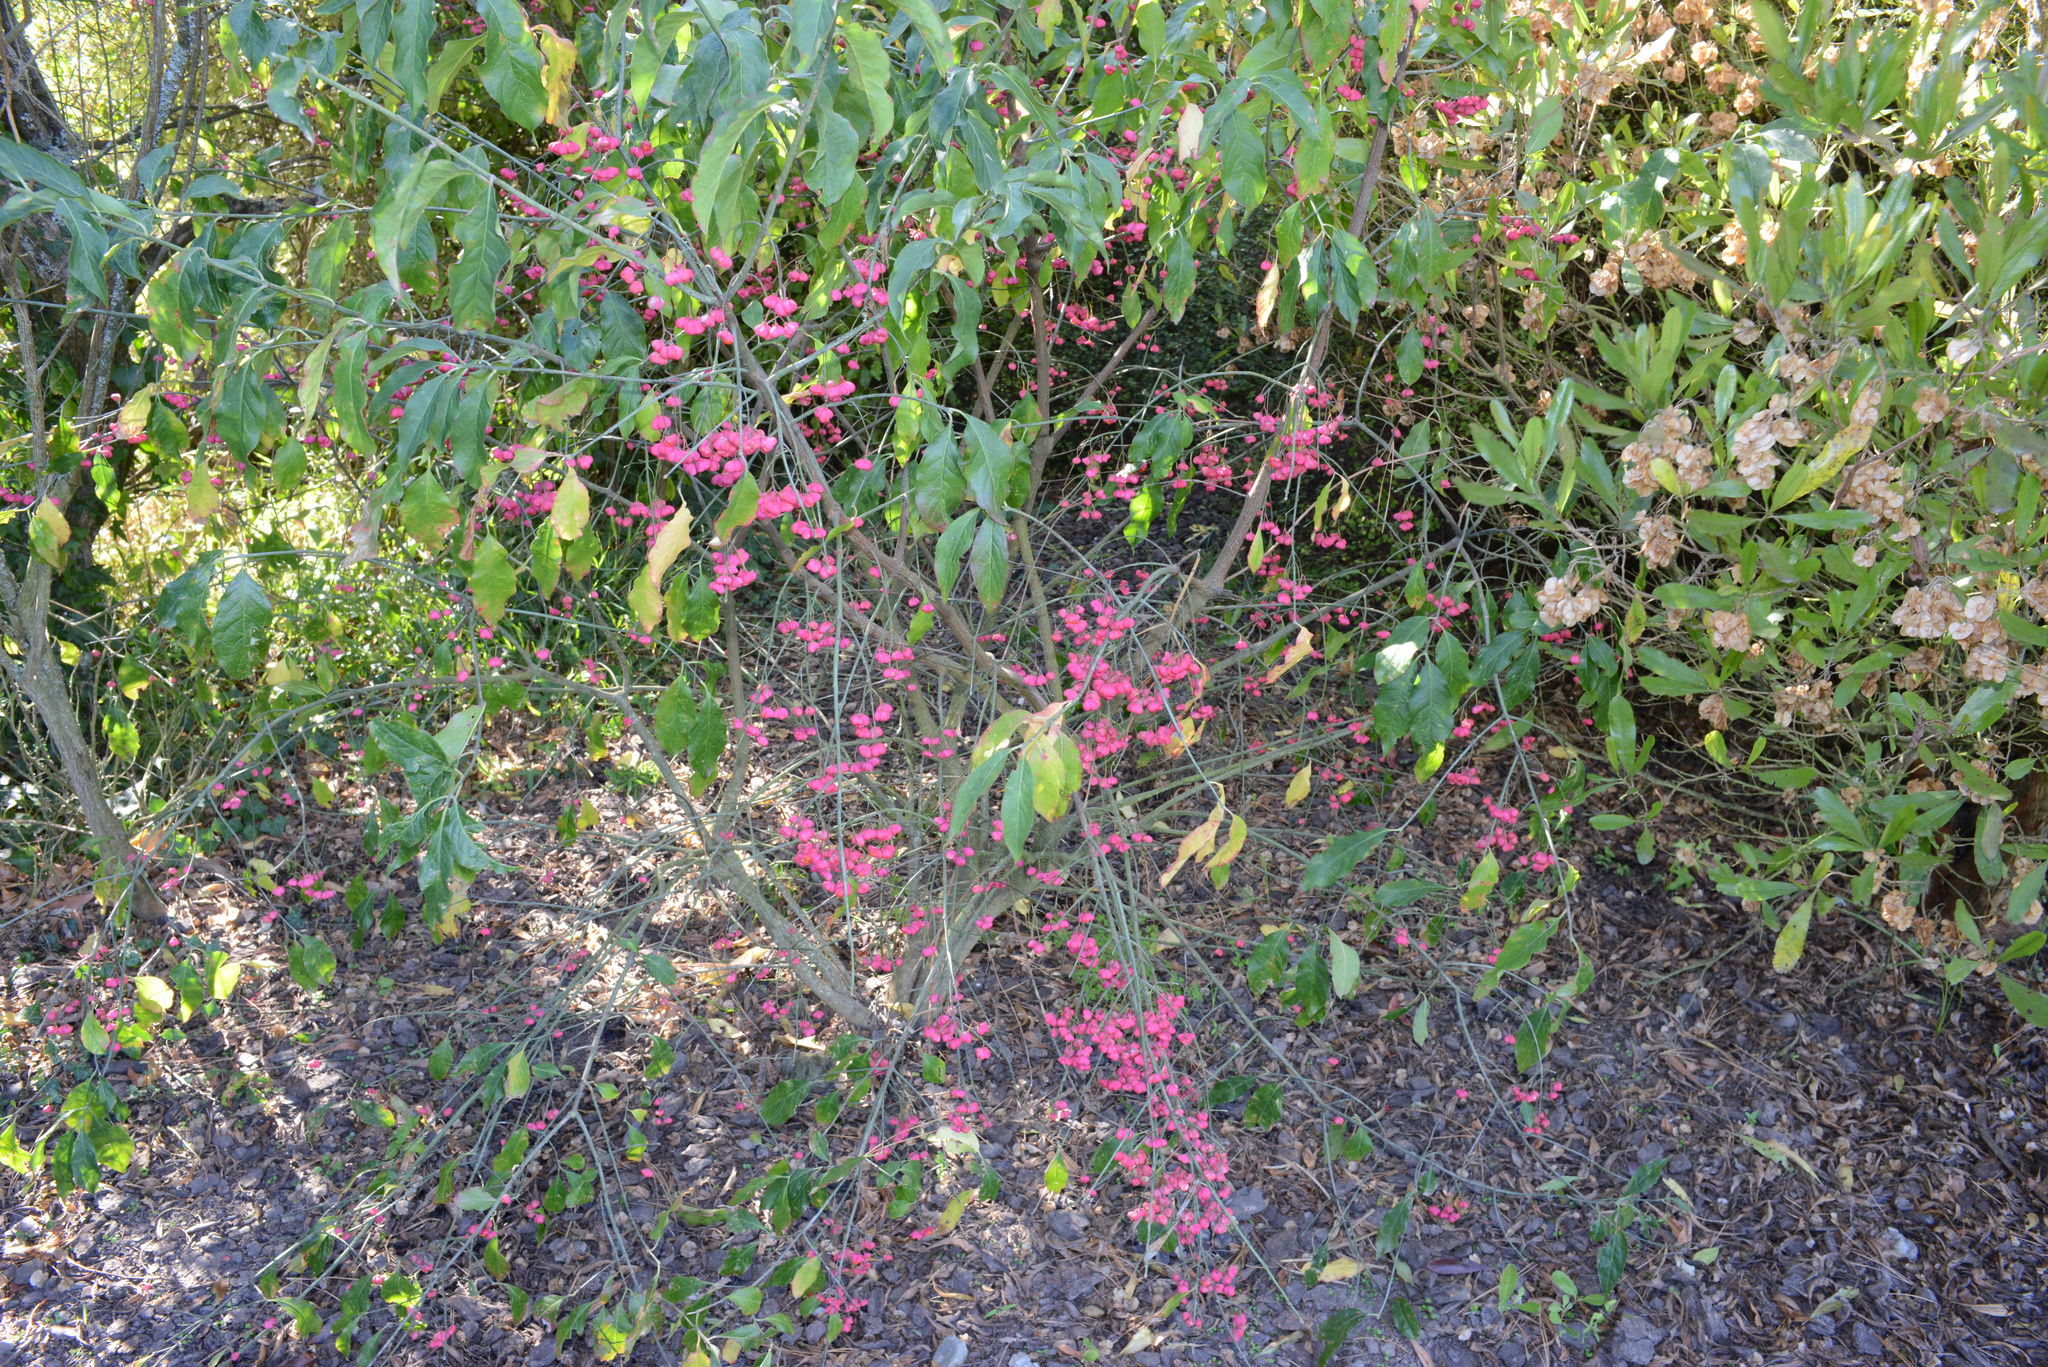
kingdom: Plantae
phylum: Tracheophyta
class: Magnoliopsida
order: Celastrales
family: Celastraceae
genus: Euonymus
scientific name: Euonymus europaeus
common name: Spindle
